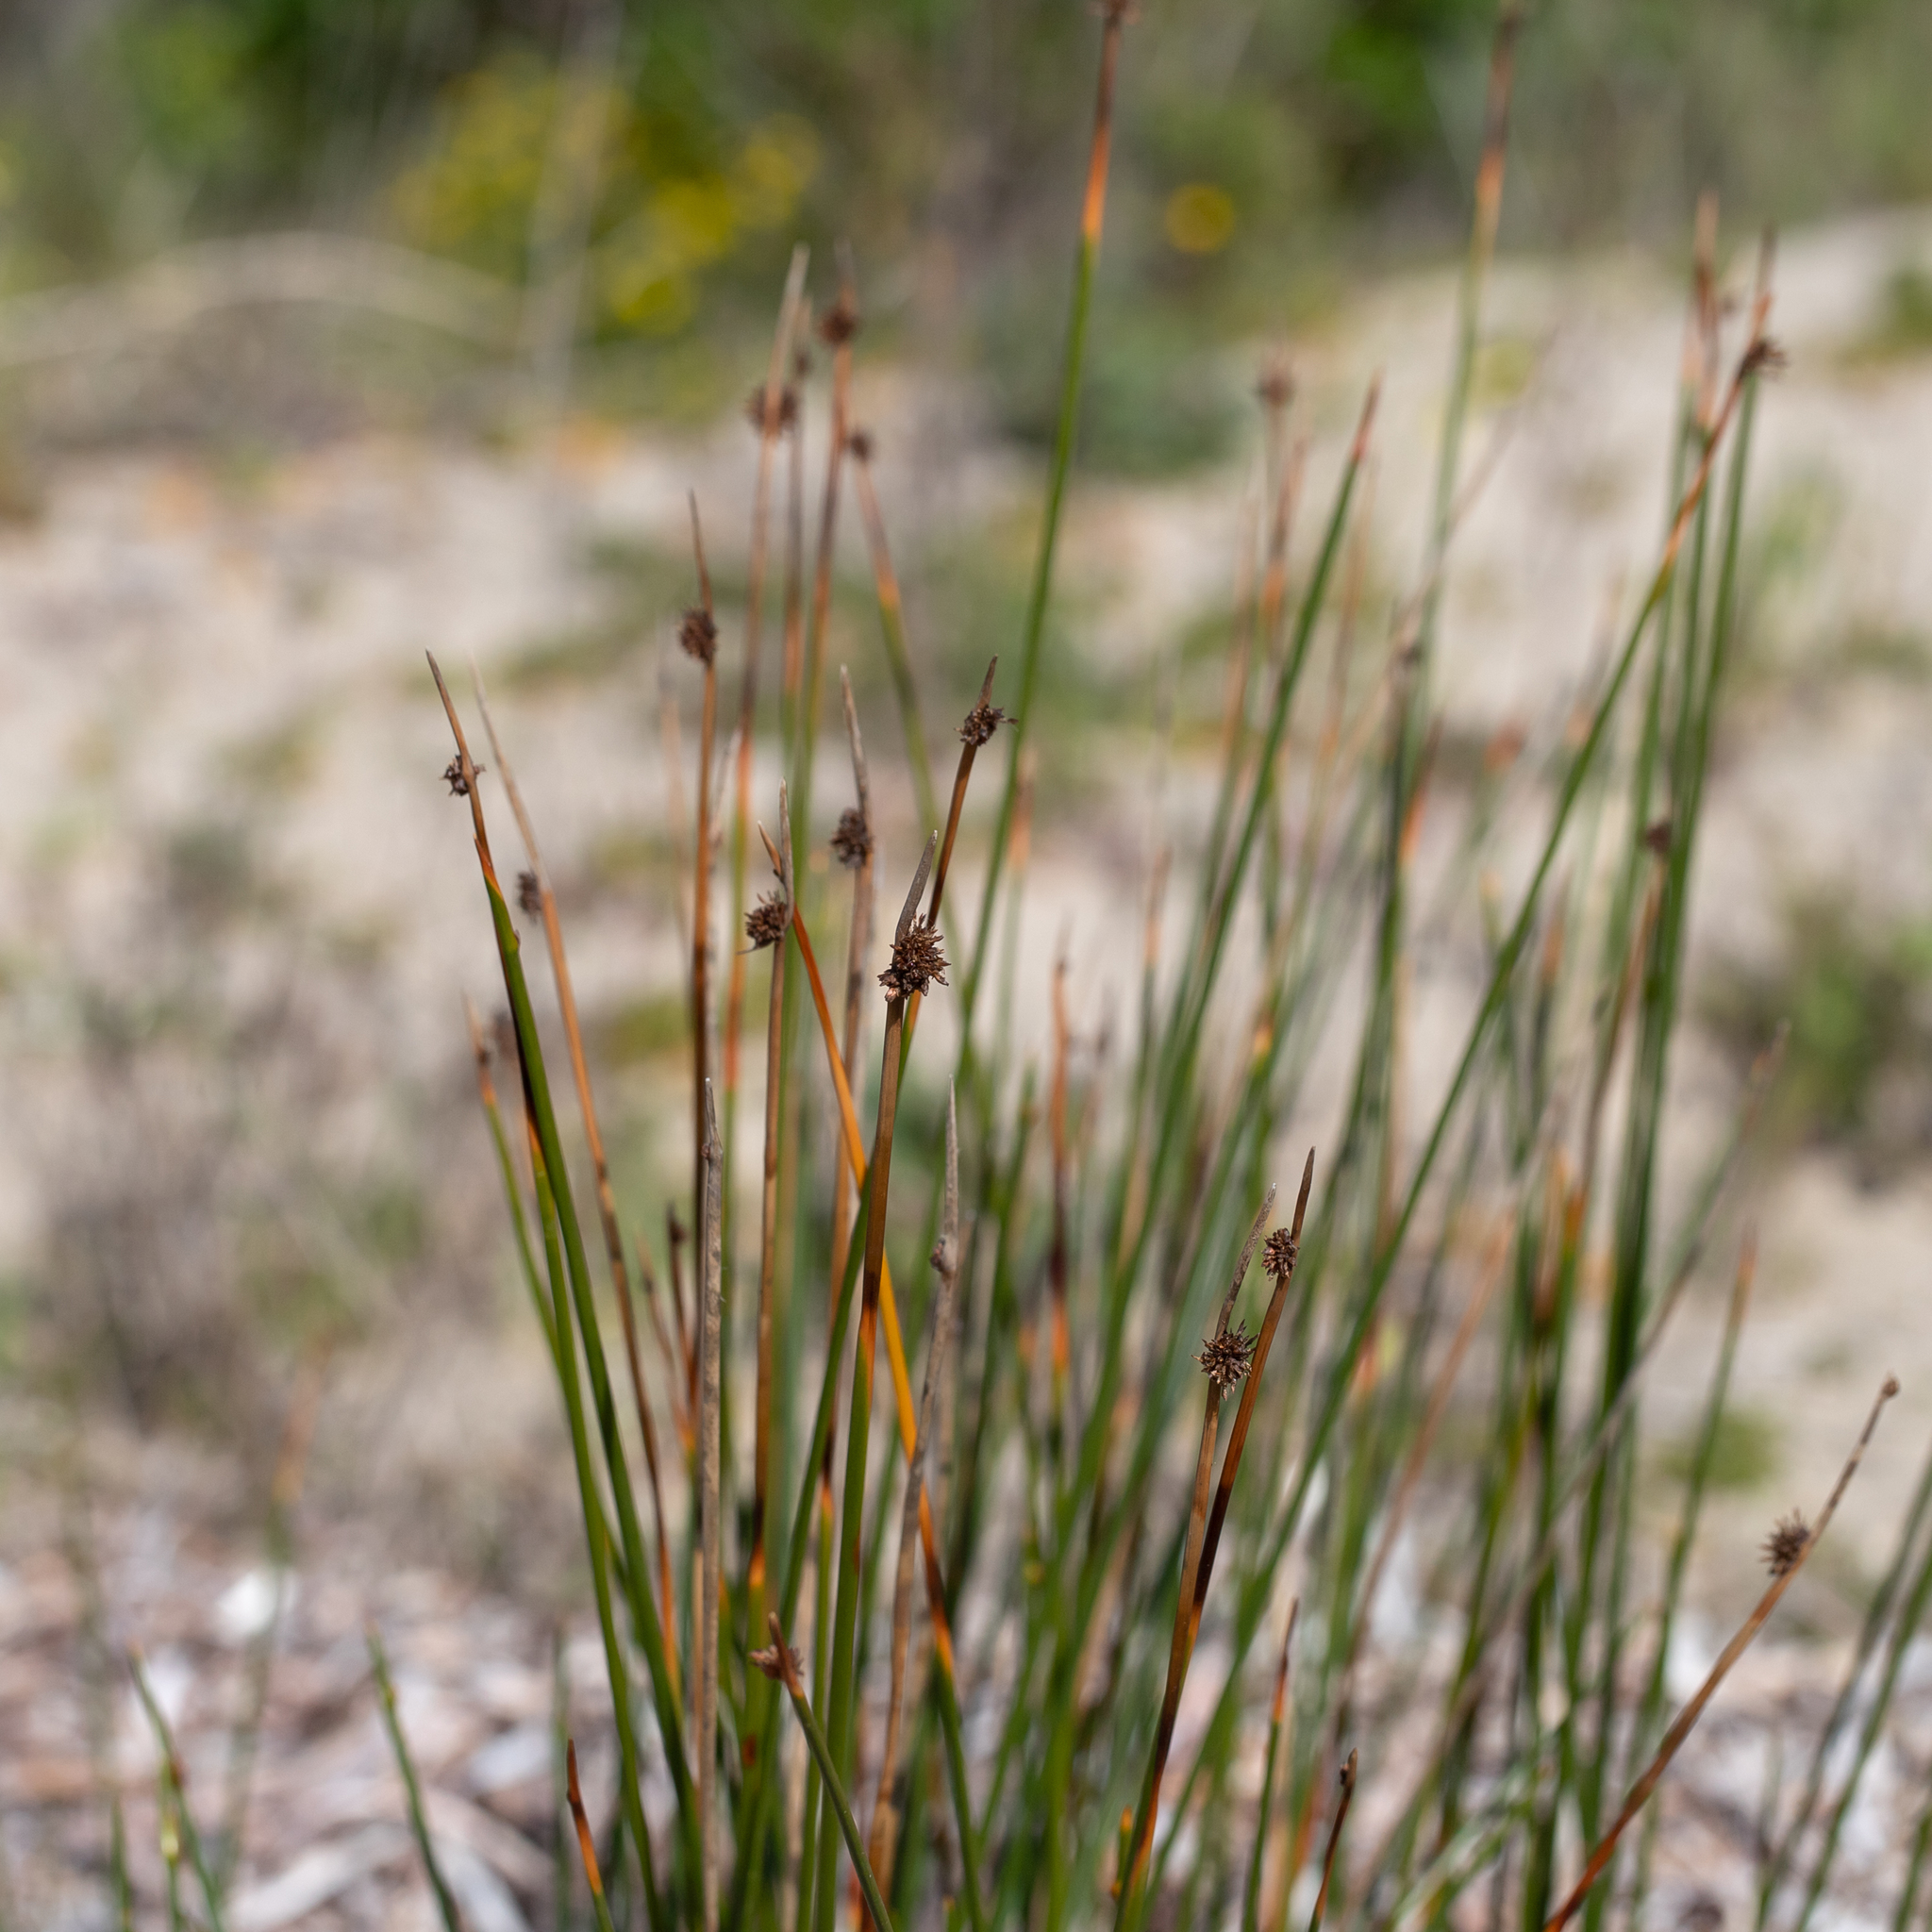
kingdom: Plantae
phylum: Tracheophyta
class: Liliopsida
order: Poales
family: Cyperaceae
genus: Ficinia
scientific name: Ficinia nodosa
